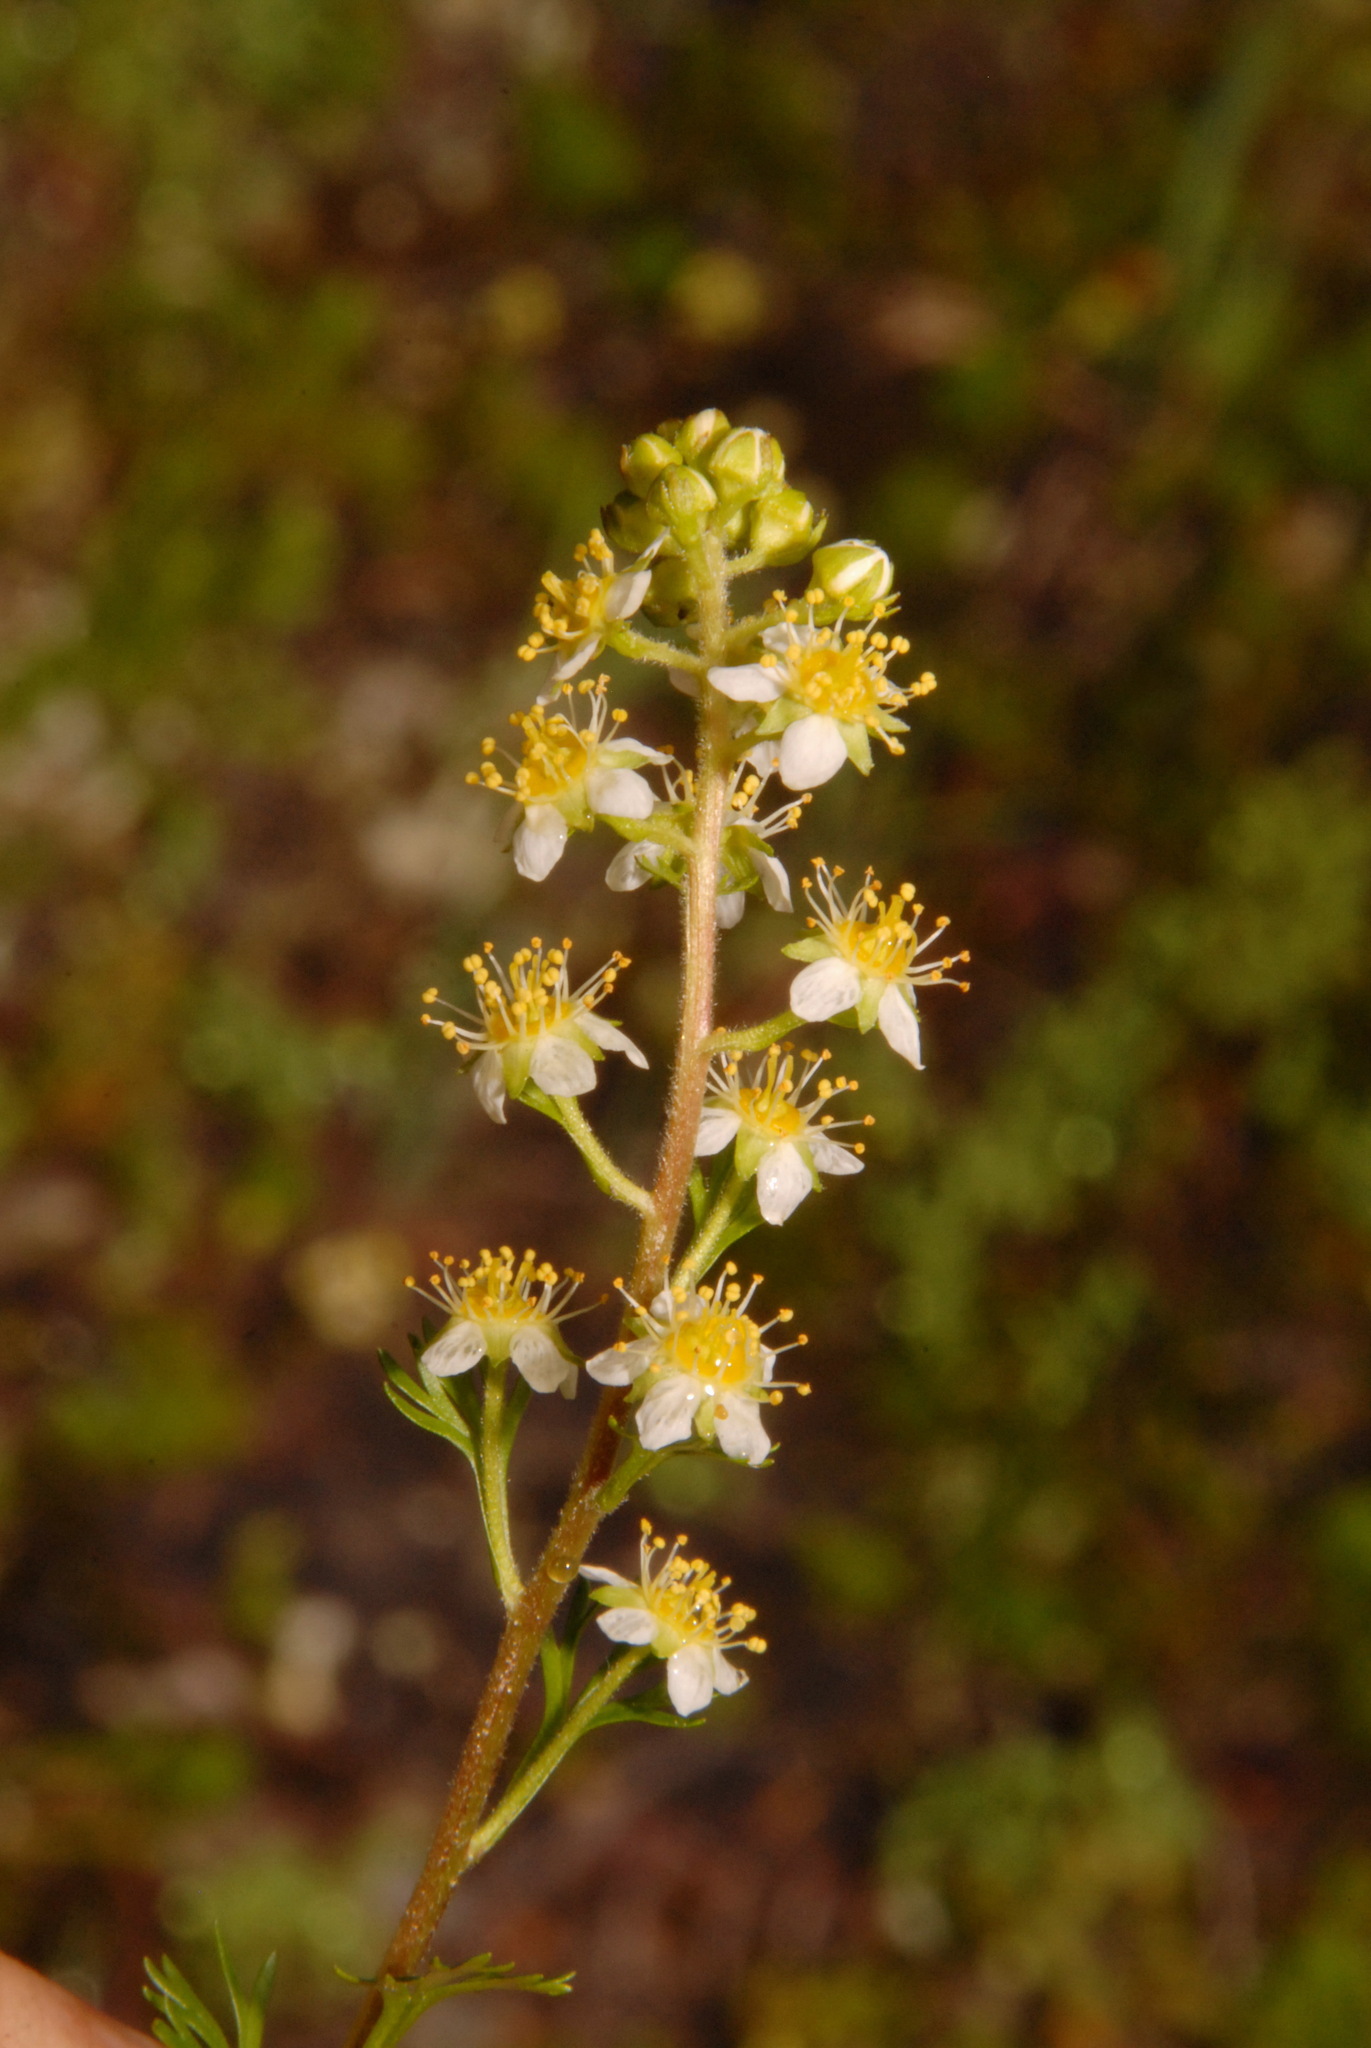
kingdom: Plantae
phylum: Tracheophyta
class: Magnoliopsida
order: Rosales
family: Rosaceae
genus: Luetkea
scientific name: Luetkea pectinata
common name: Partridgefoot
